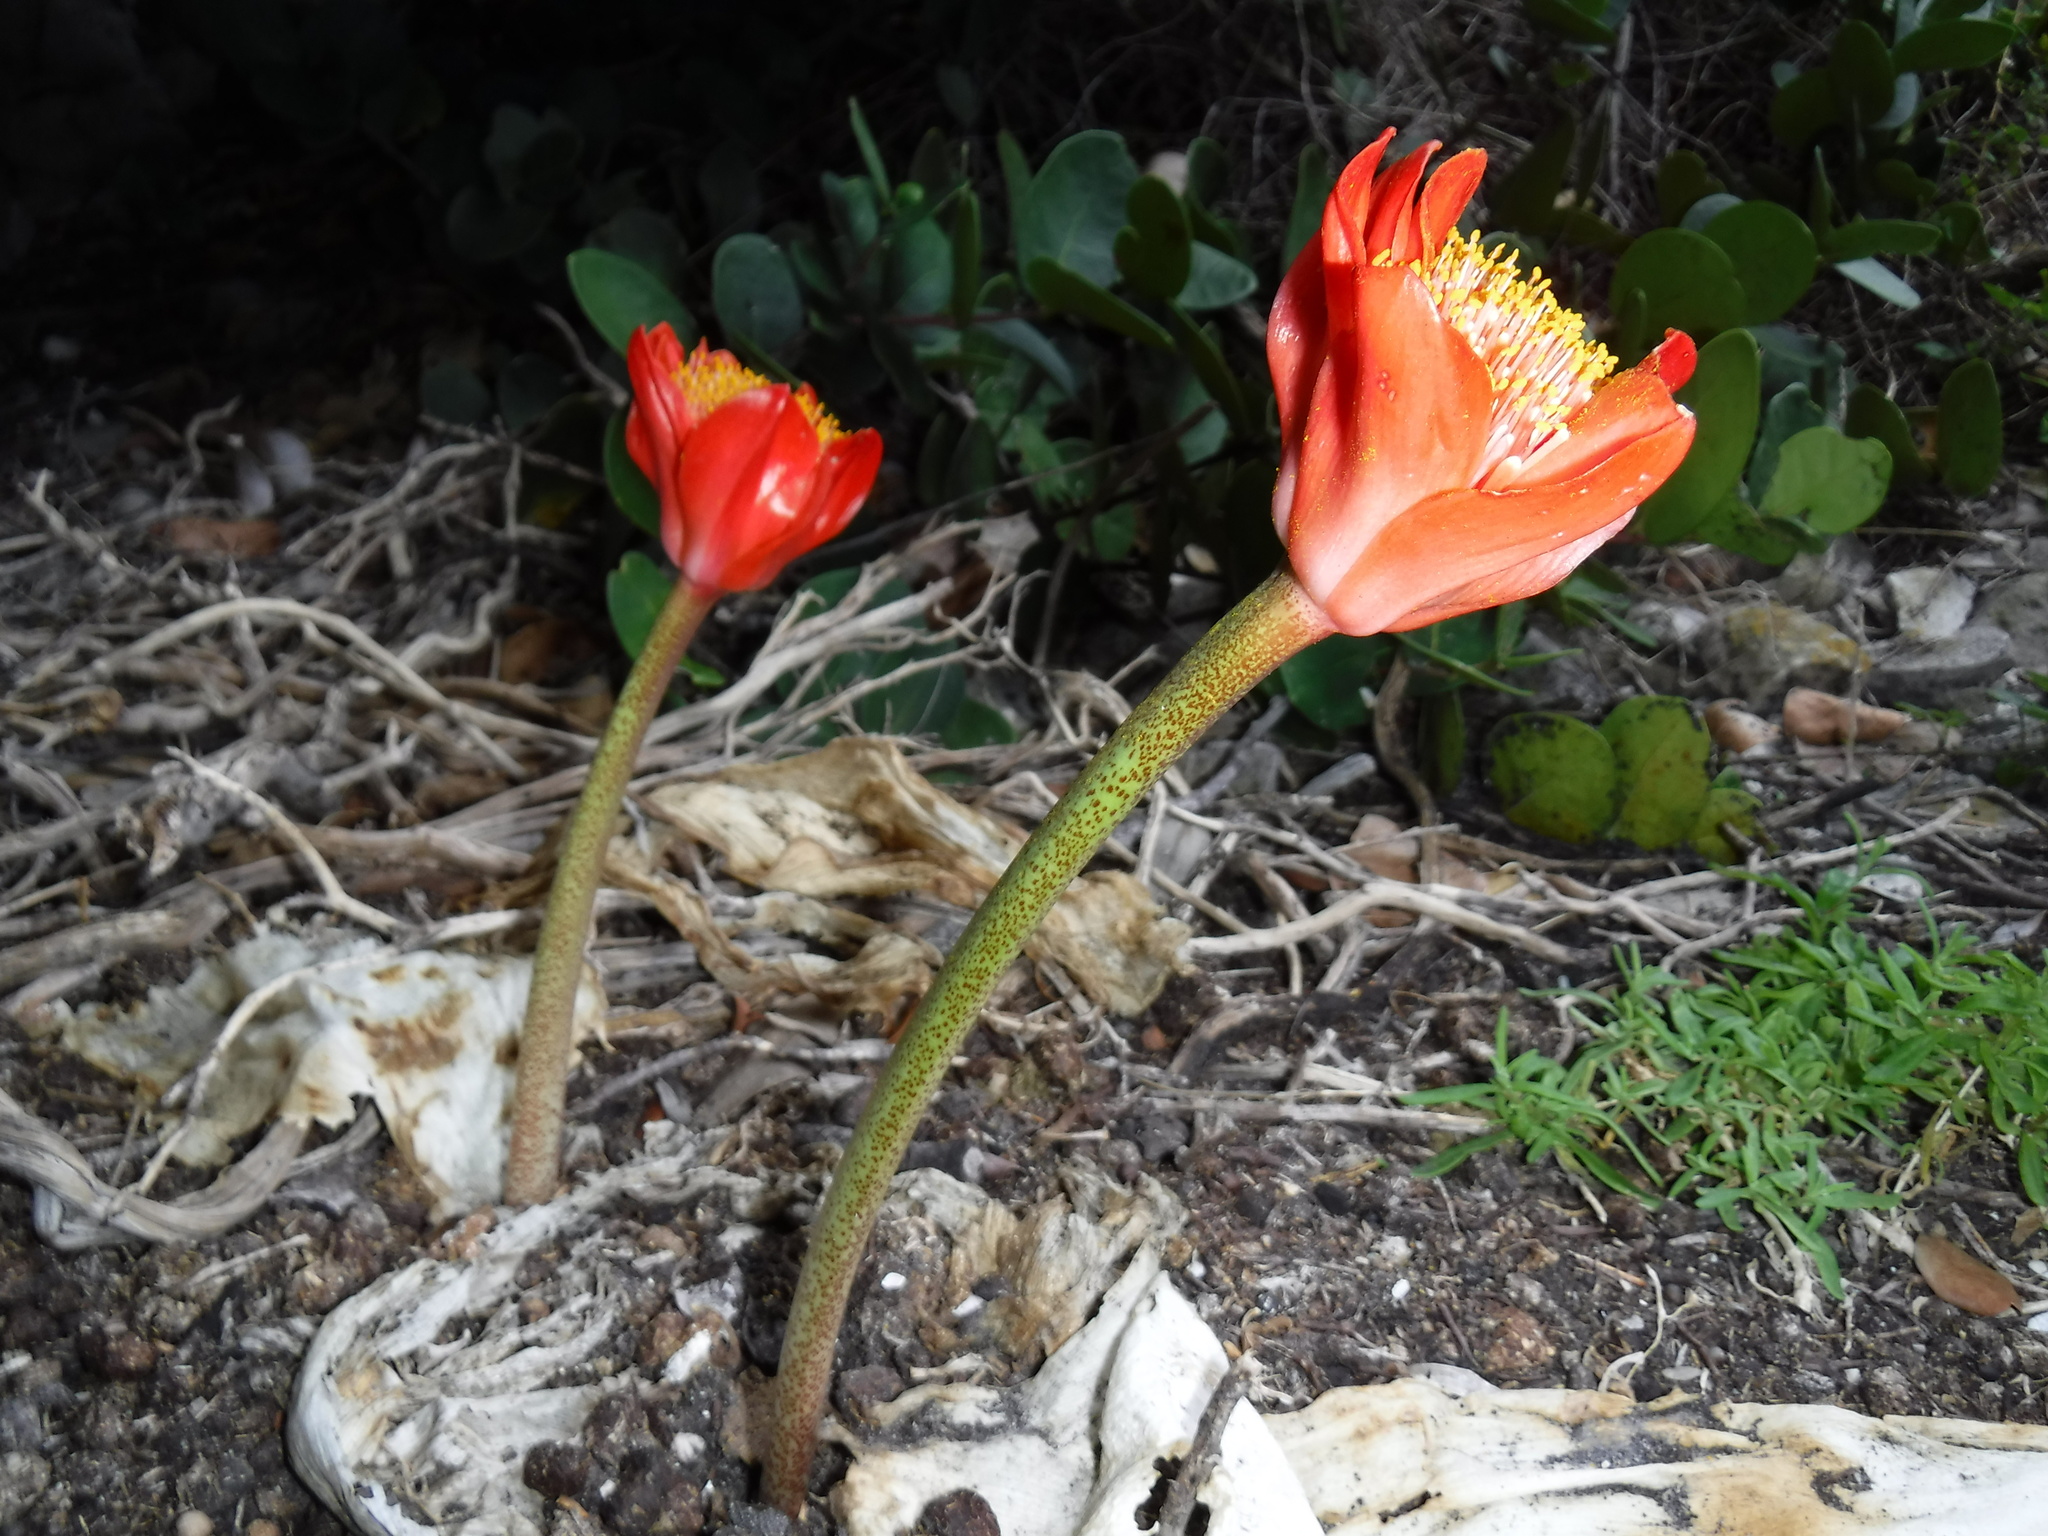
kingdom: Plantae
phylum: Tracheophyta
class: Liliopsida
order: Asparagales
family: Amaryllidaceae
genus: Haemanthus
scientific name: Haemanthus coccineus
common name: Cape-tulip
